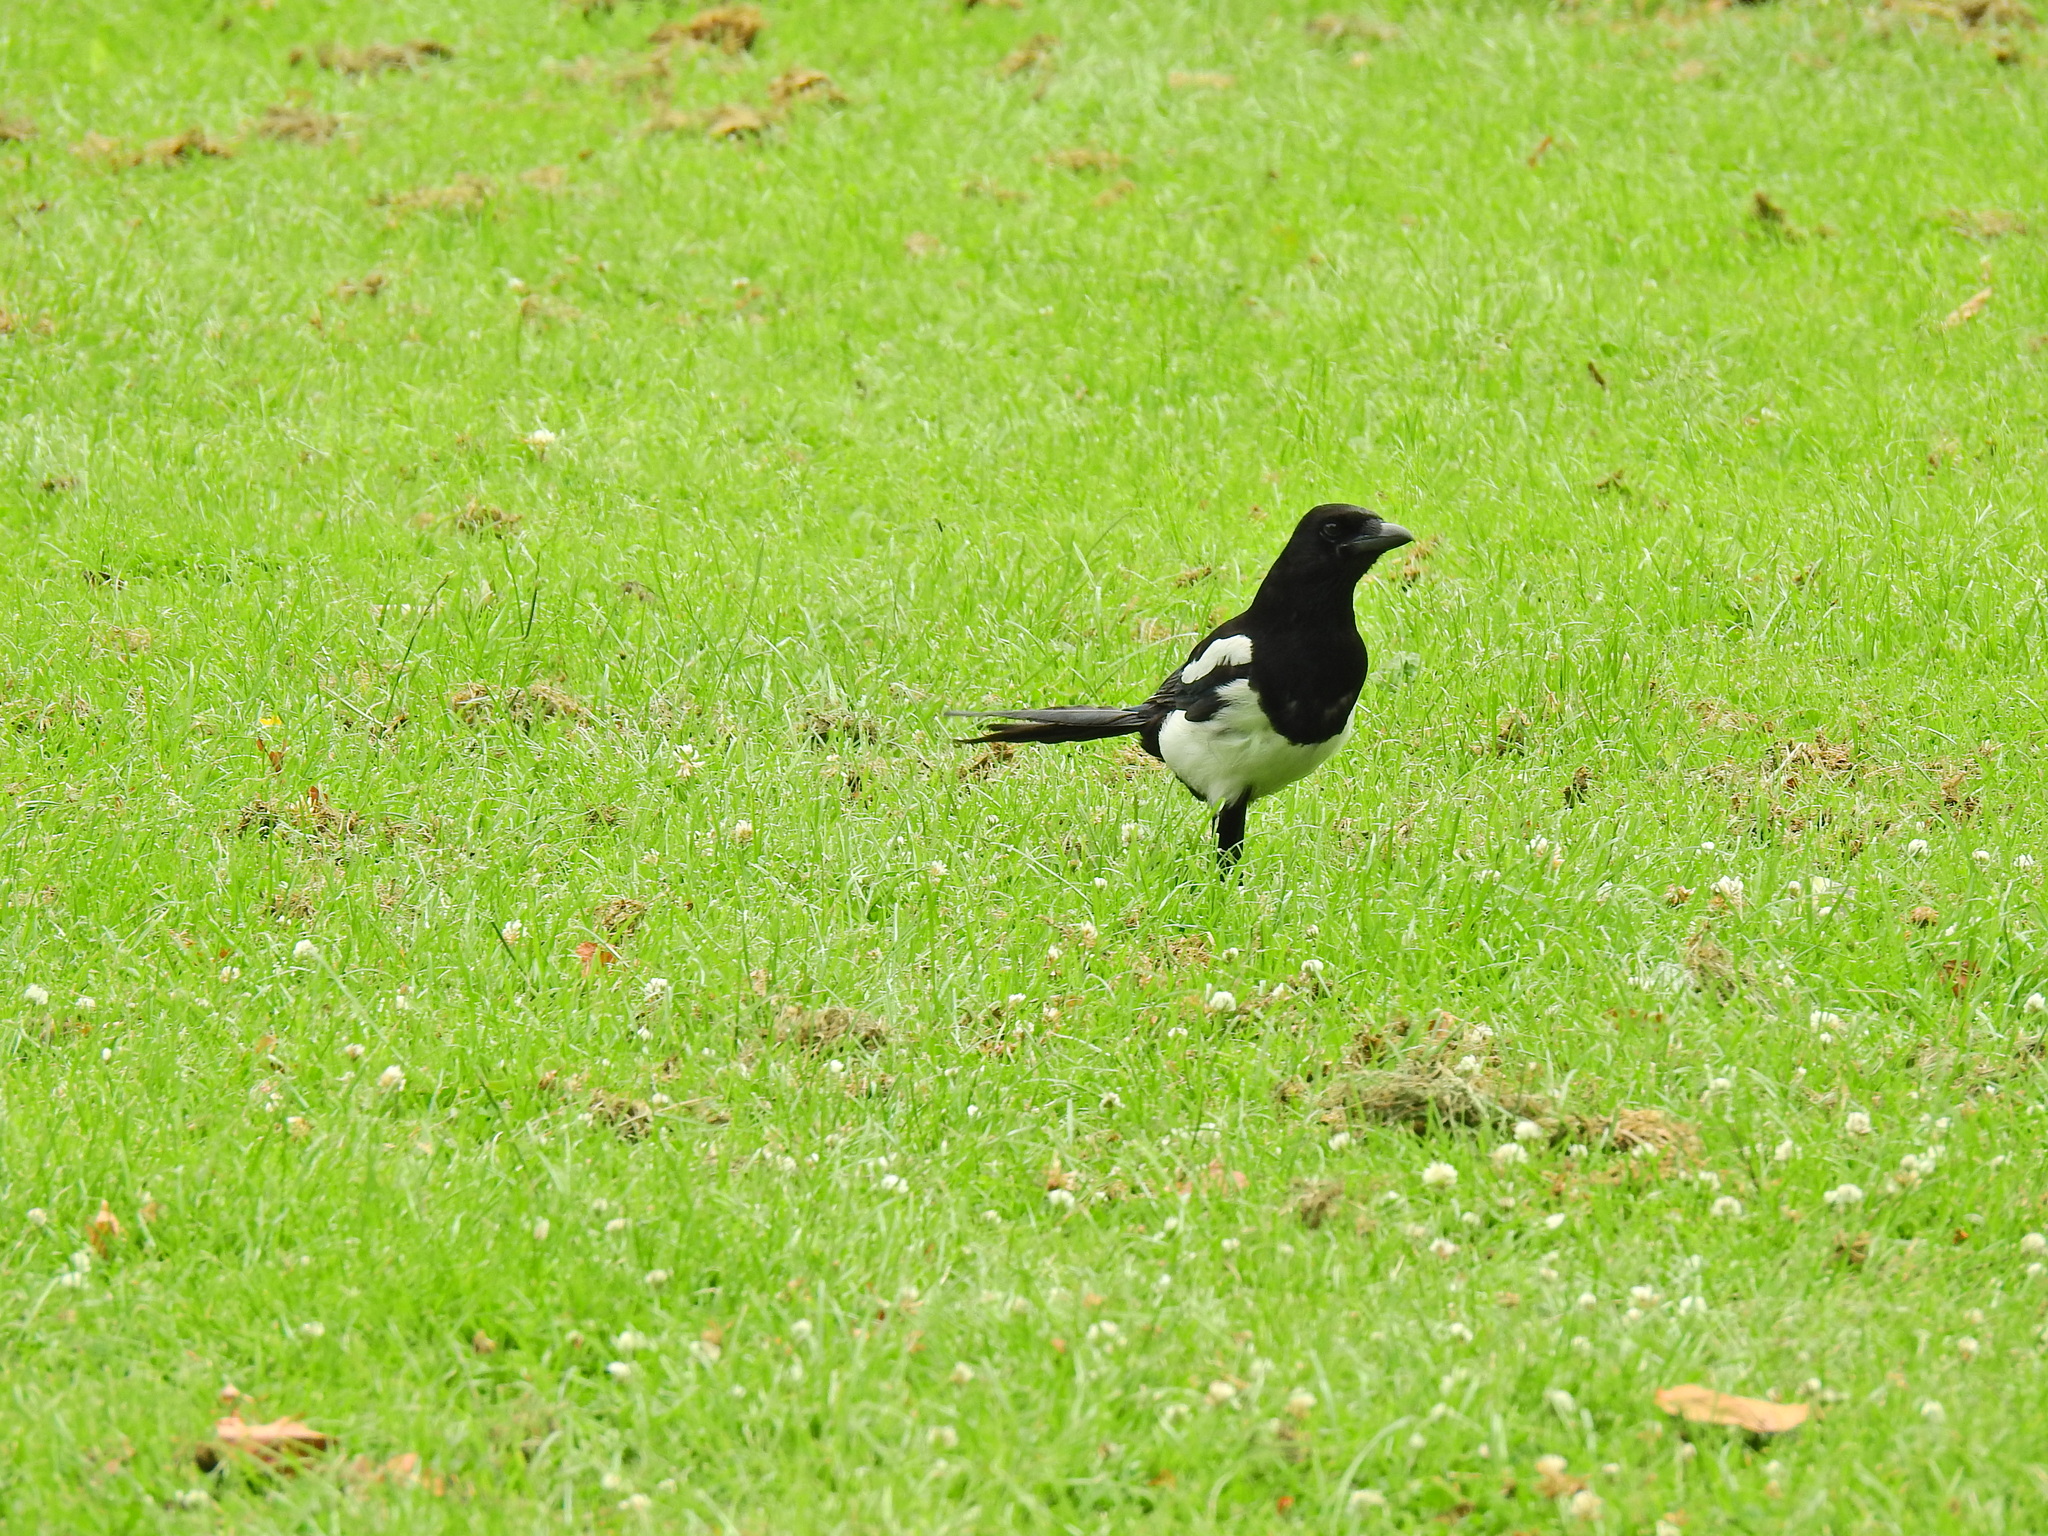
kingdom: Animalia
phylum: Chordata
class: Aves
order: Passeriformes
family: Corvidae
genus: Pica
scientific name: Pica pica
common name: Eurasian magpie
